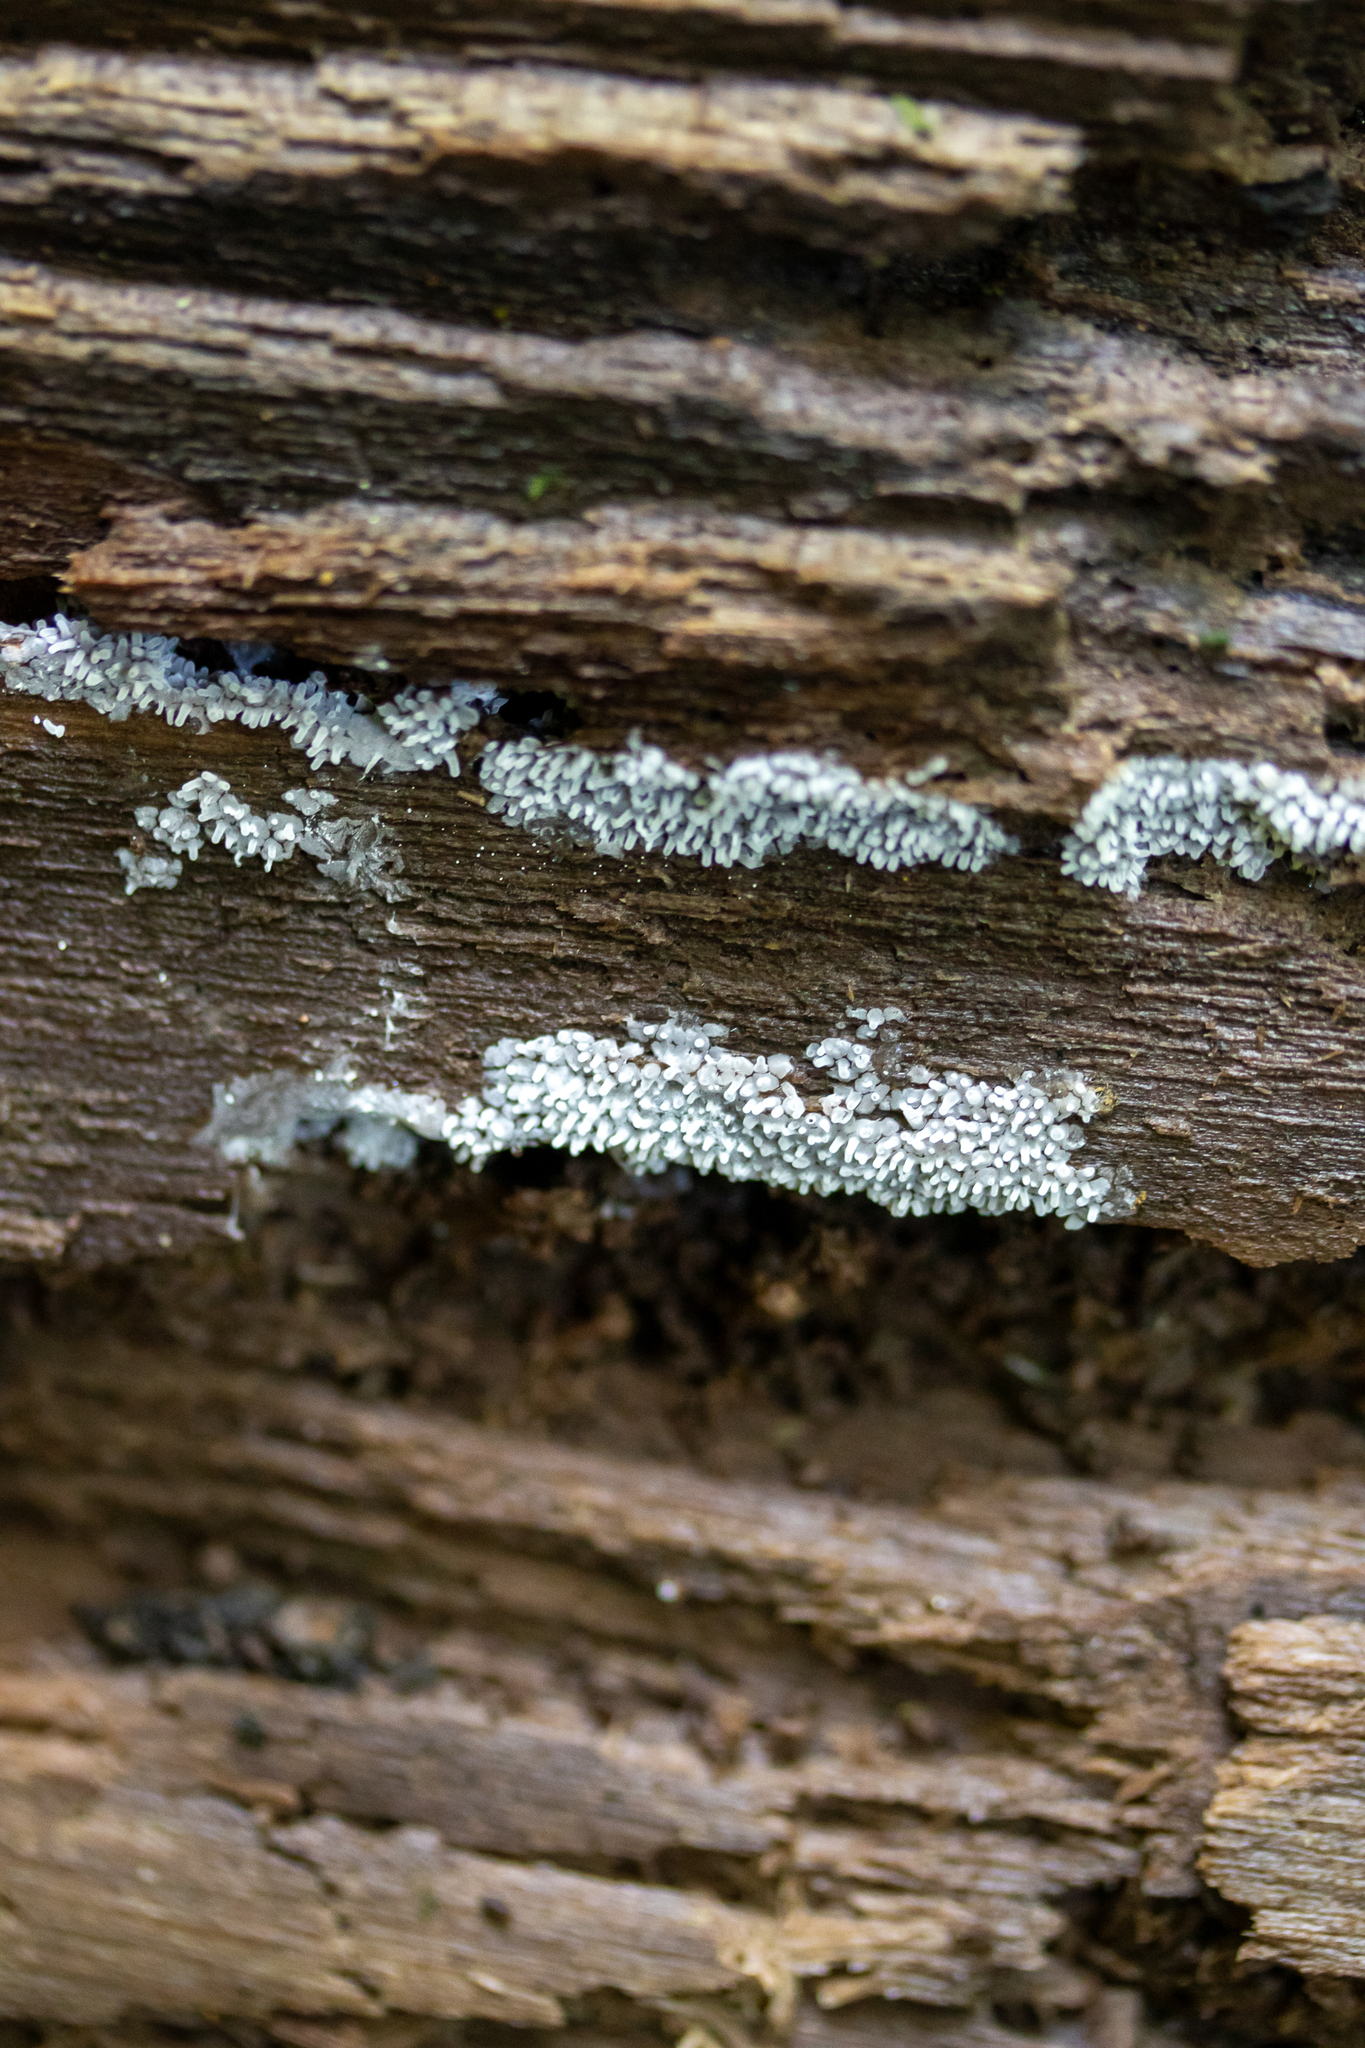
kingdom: Protozoa
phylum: Mycetozoa
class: Protosteliomycetes
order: Ceratiomyxales
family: Ceratiomyxaceae
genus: Ceratiomyxa
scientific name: Ceratiomyxa fruticulosa
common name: Honeycomb coral slime mold
